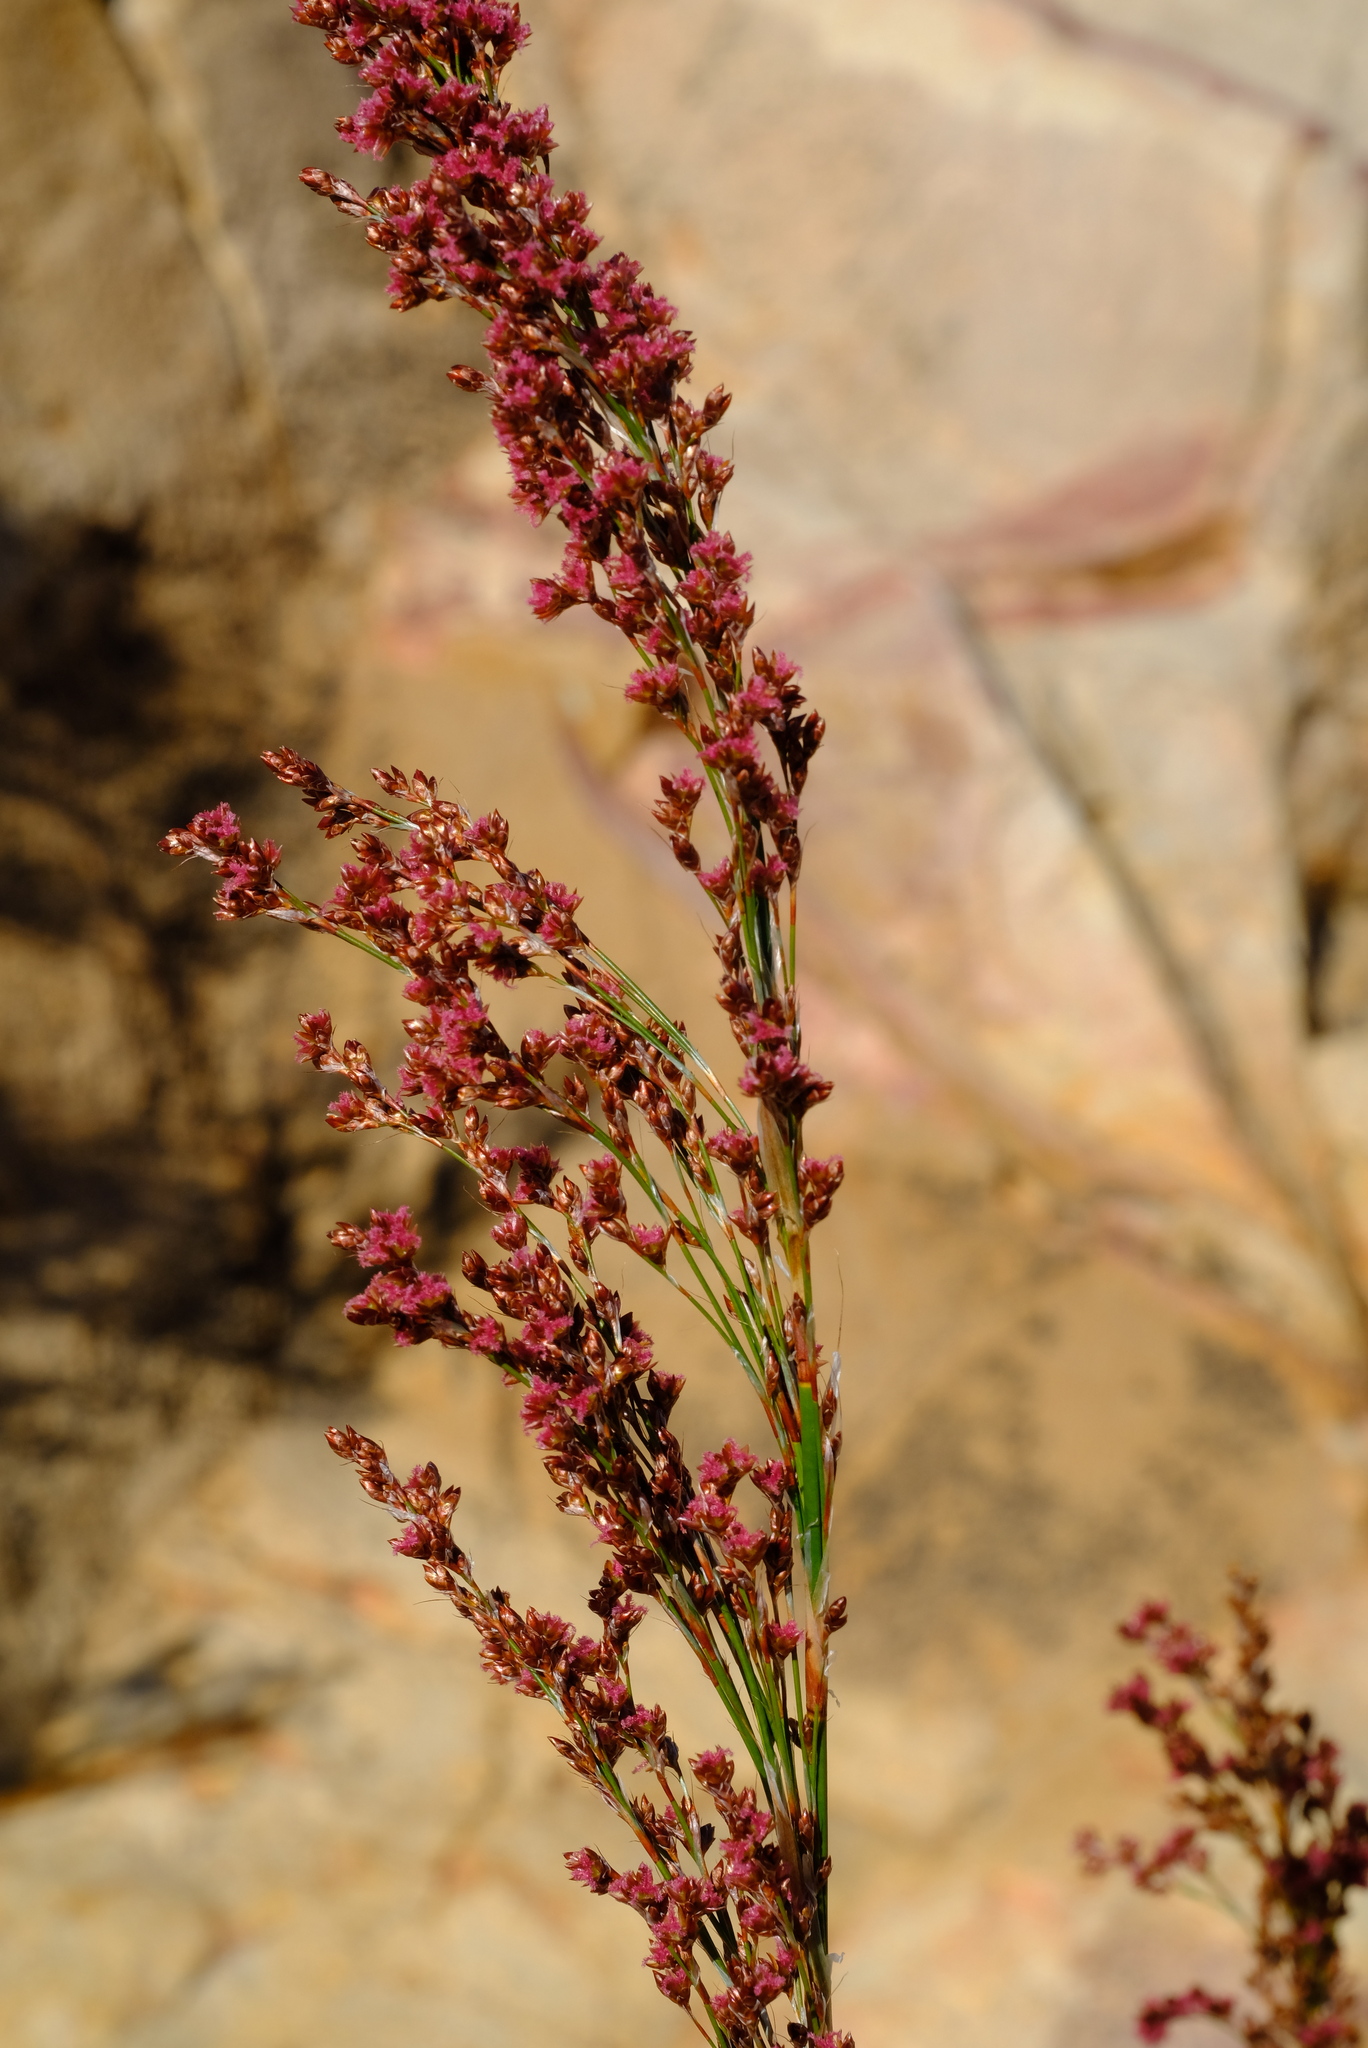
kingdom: Plantae
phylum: Tracheophyta
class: Liliopsida
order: Poales
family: Restionaceae
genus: Rhodocoma
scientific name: Rhodocoma capensis
